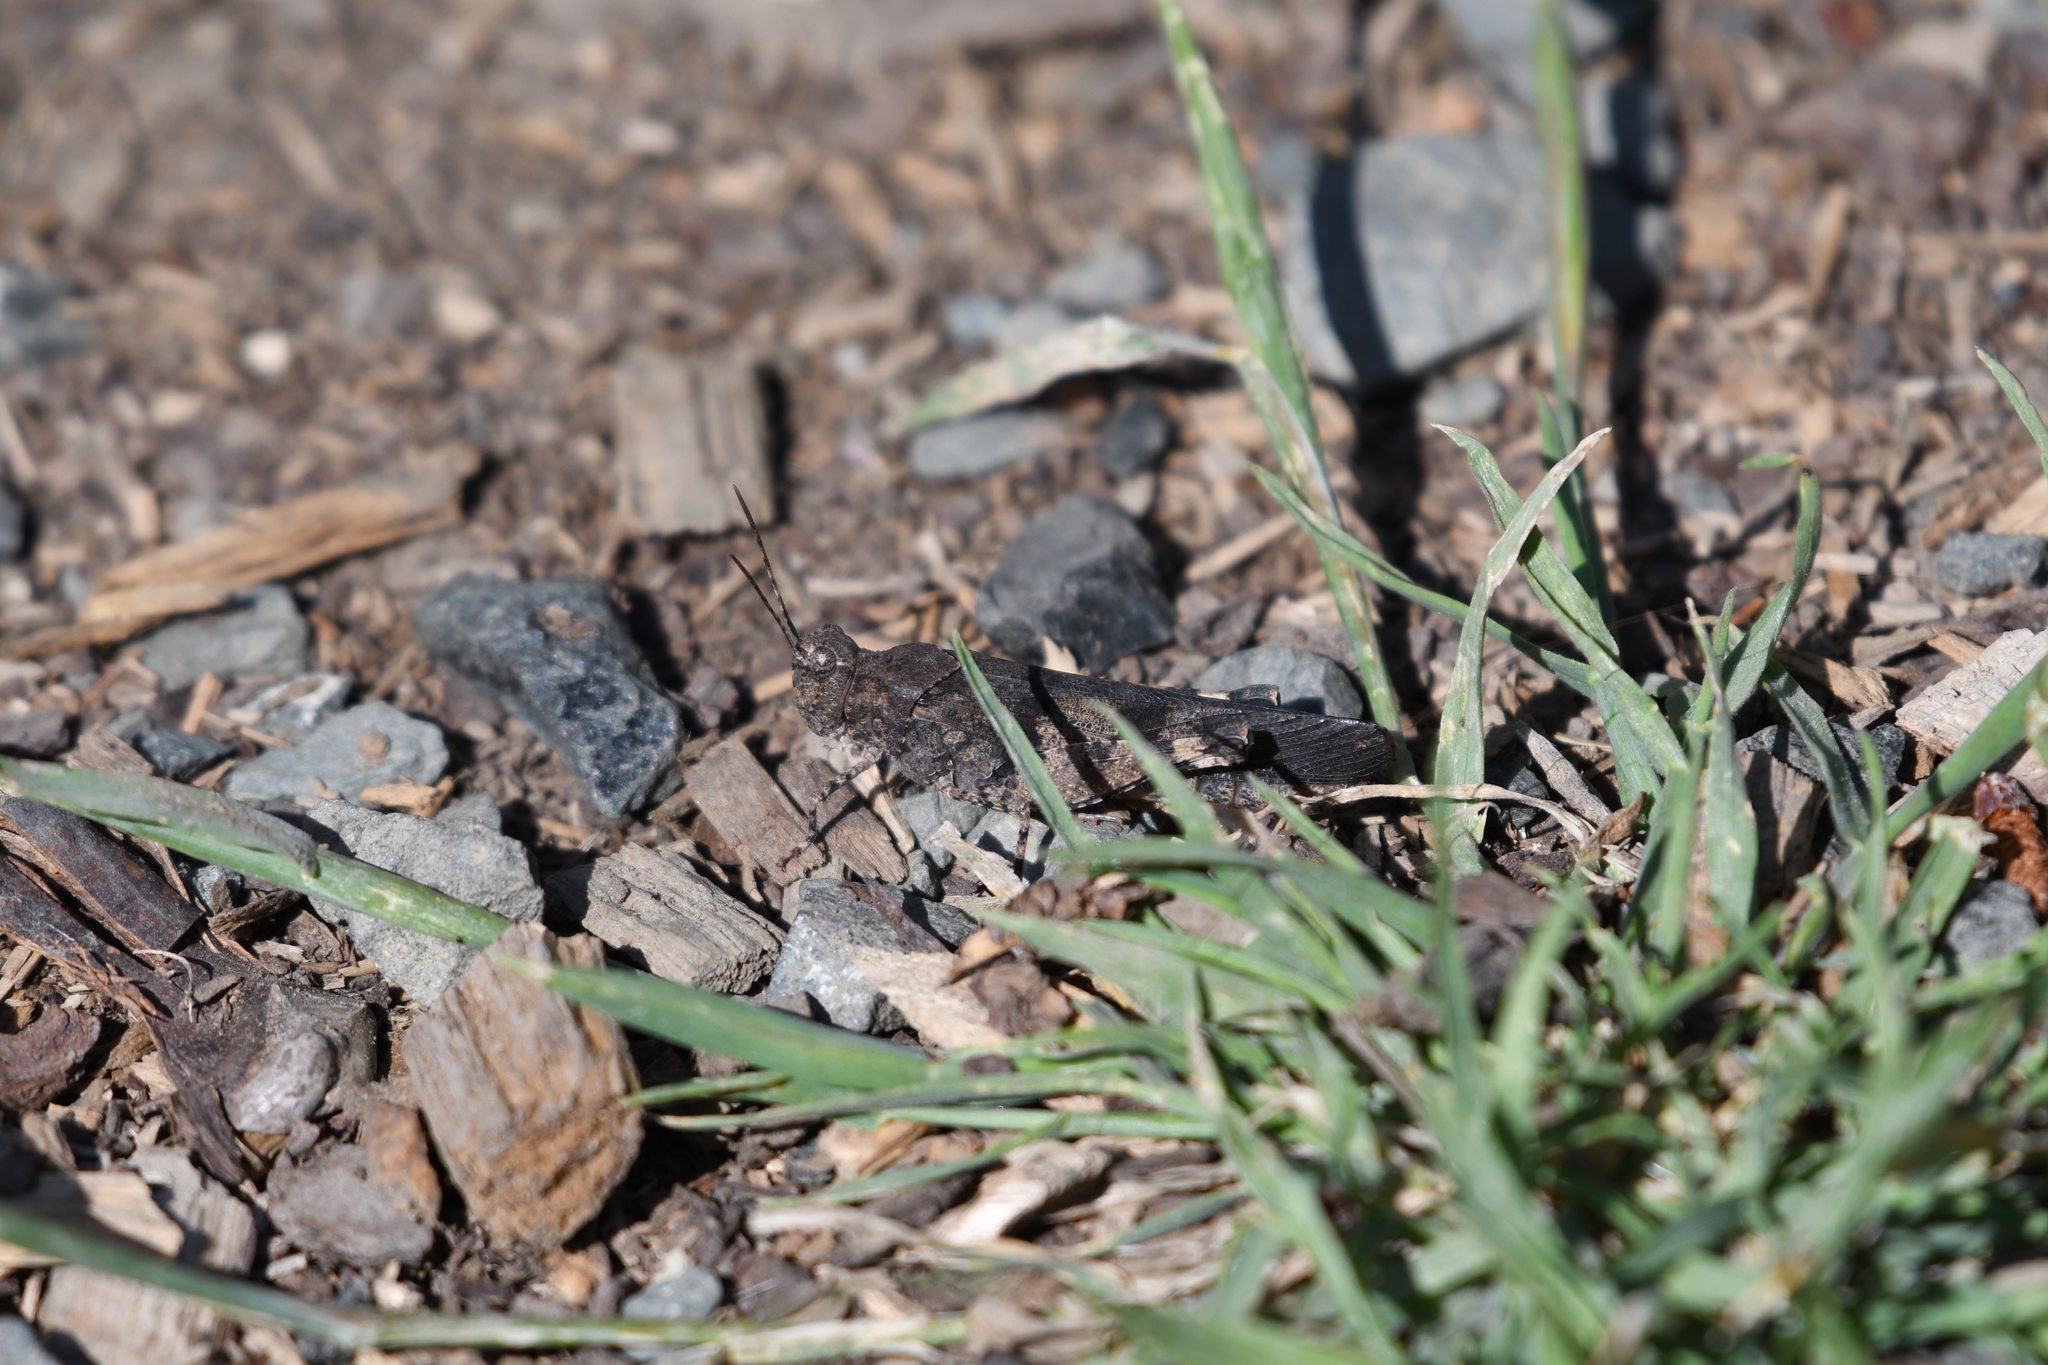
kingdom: Animalia
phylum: Arthropoda
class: Insecta
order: Orthoptera
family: Acrididae
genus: Trimerotropis
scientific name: Trimerotropis fontana
